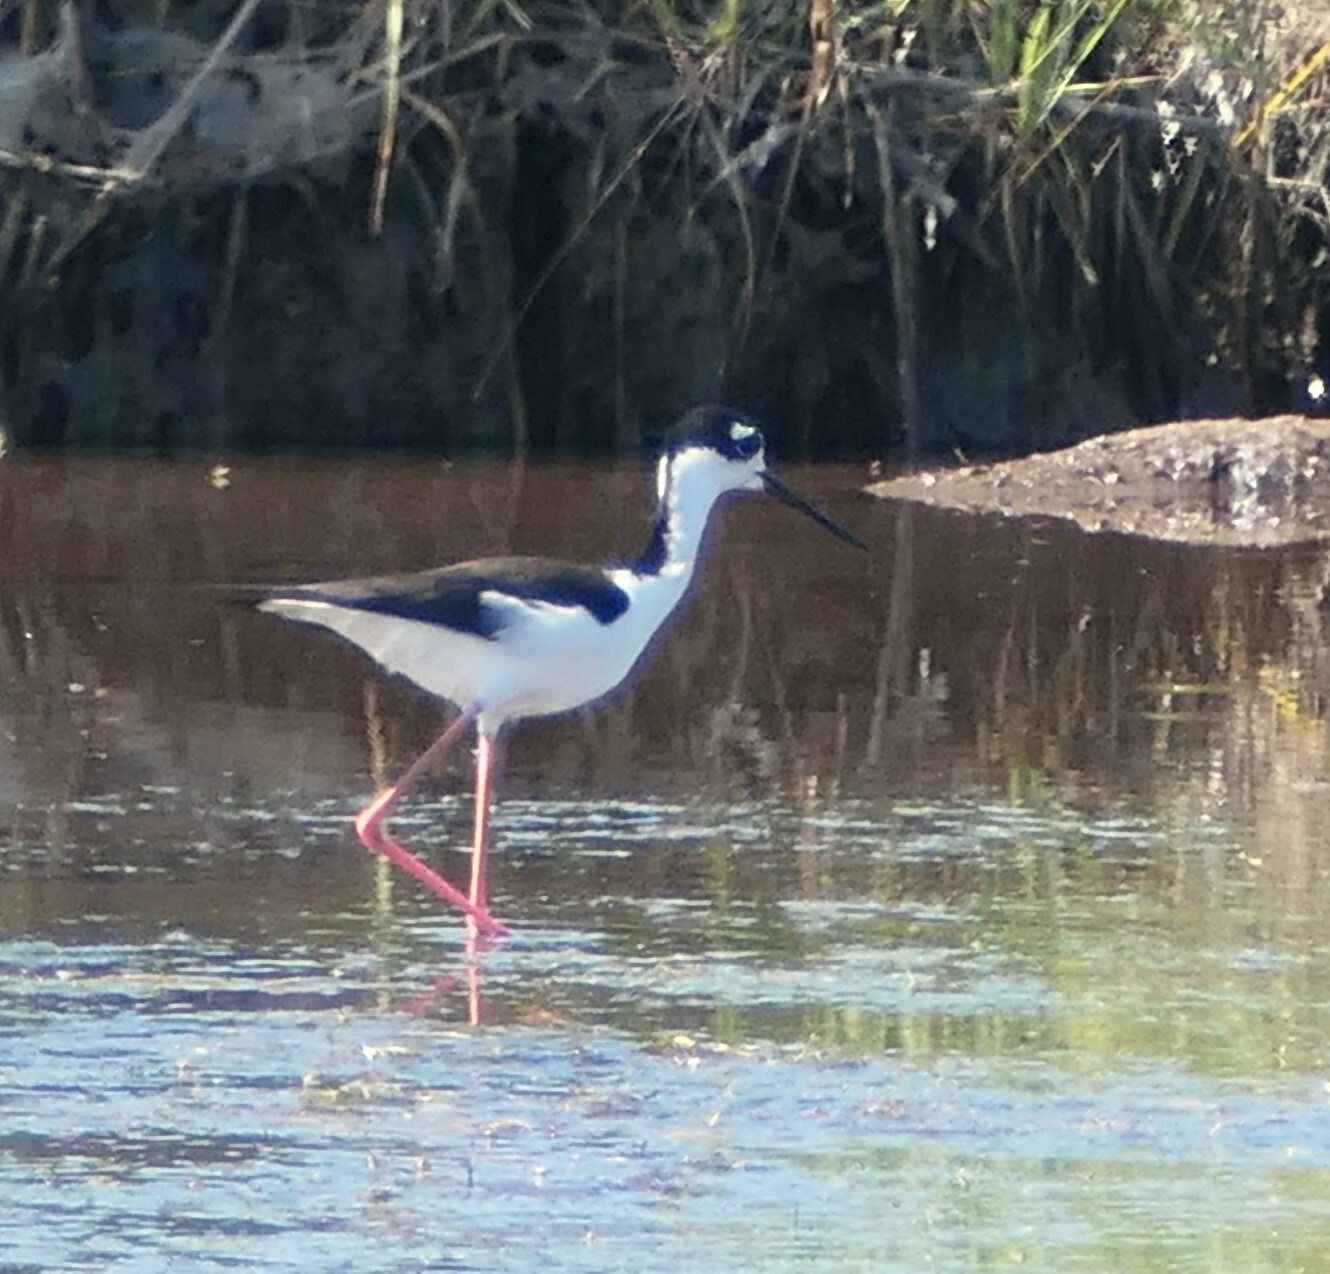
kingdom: Animalia
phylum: Chordata
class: Aves
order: Charadriiformes
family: Recurvirostridae
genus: Himantopus
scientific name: Himantopus mexicanus
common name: Black-necked stilt
